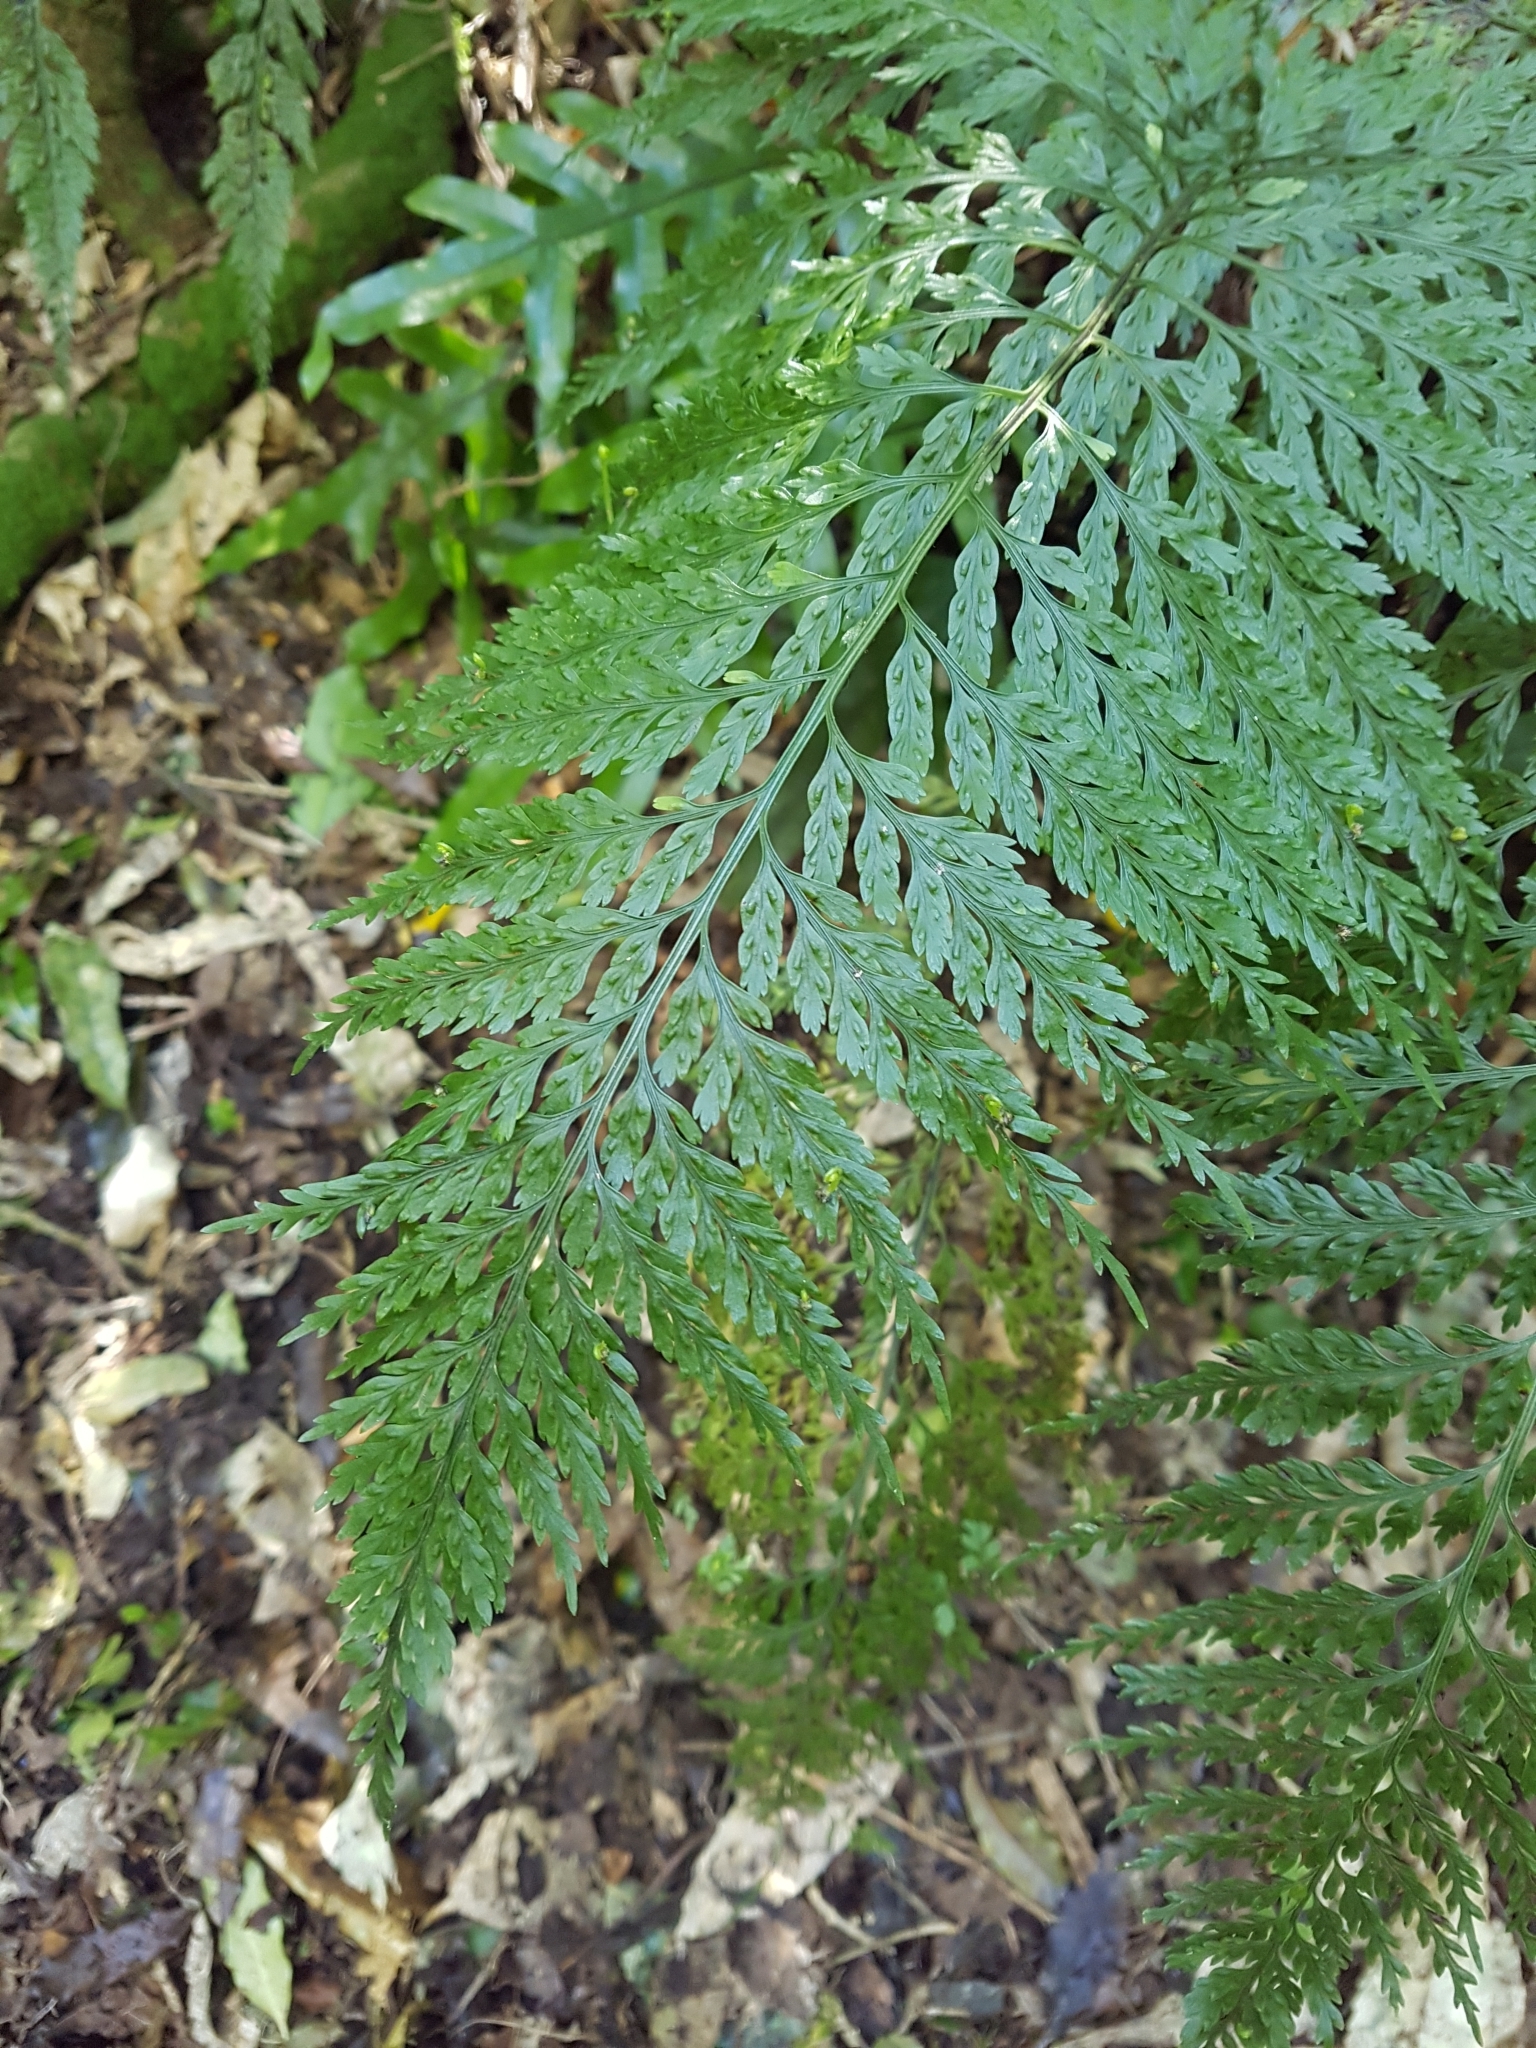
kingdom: Plantae
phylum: Tracheophyta
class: Polypodiopsida
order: Polypodiales
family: Aspleniaceae
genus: Asplenium
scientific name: Asplenium
